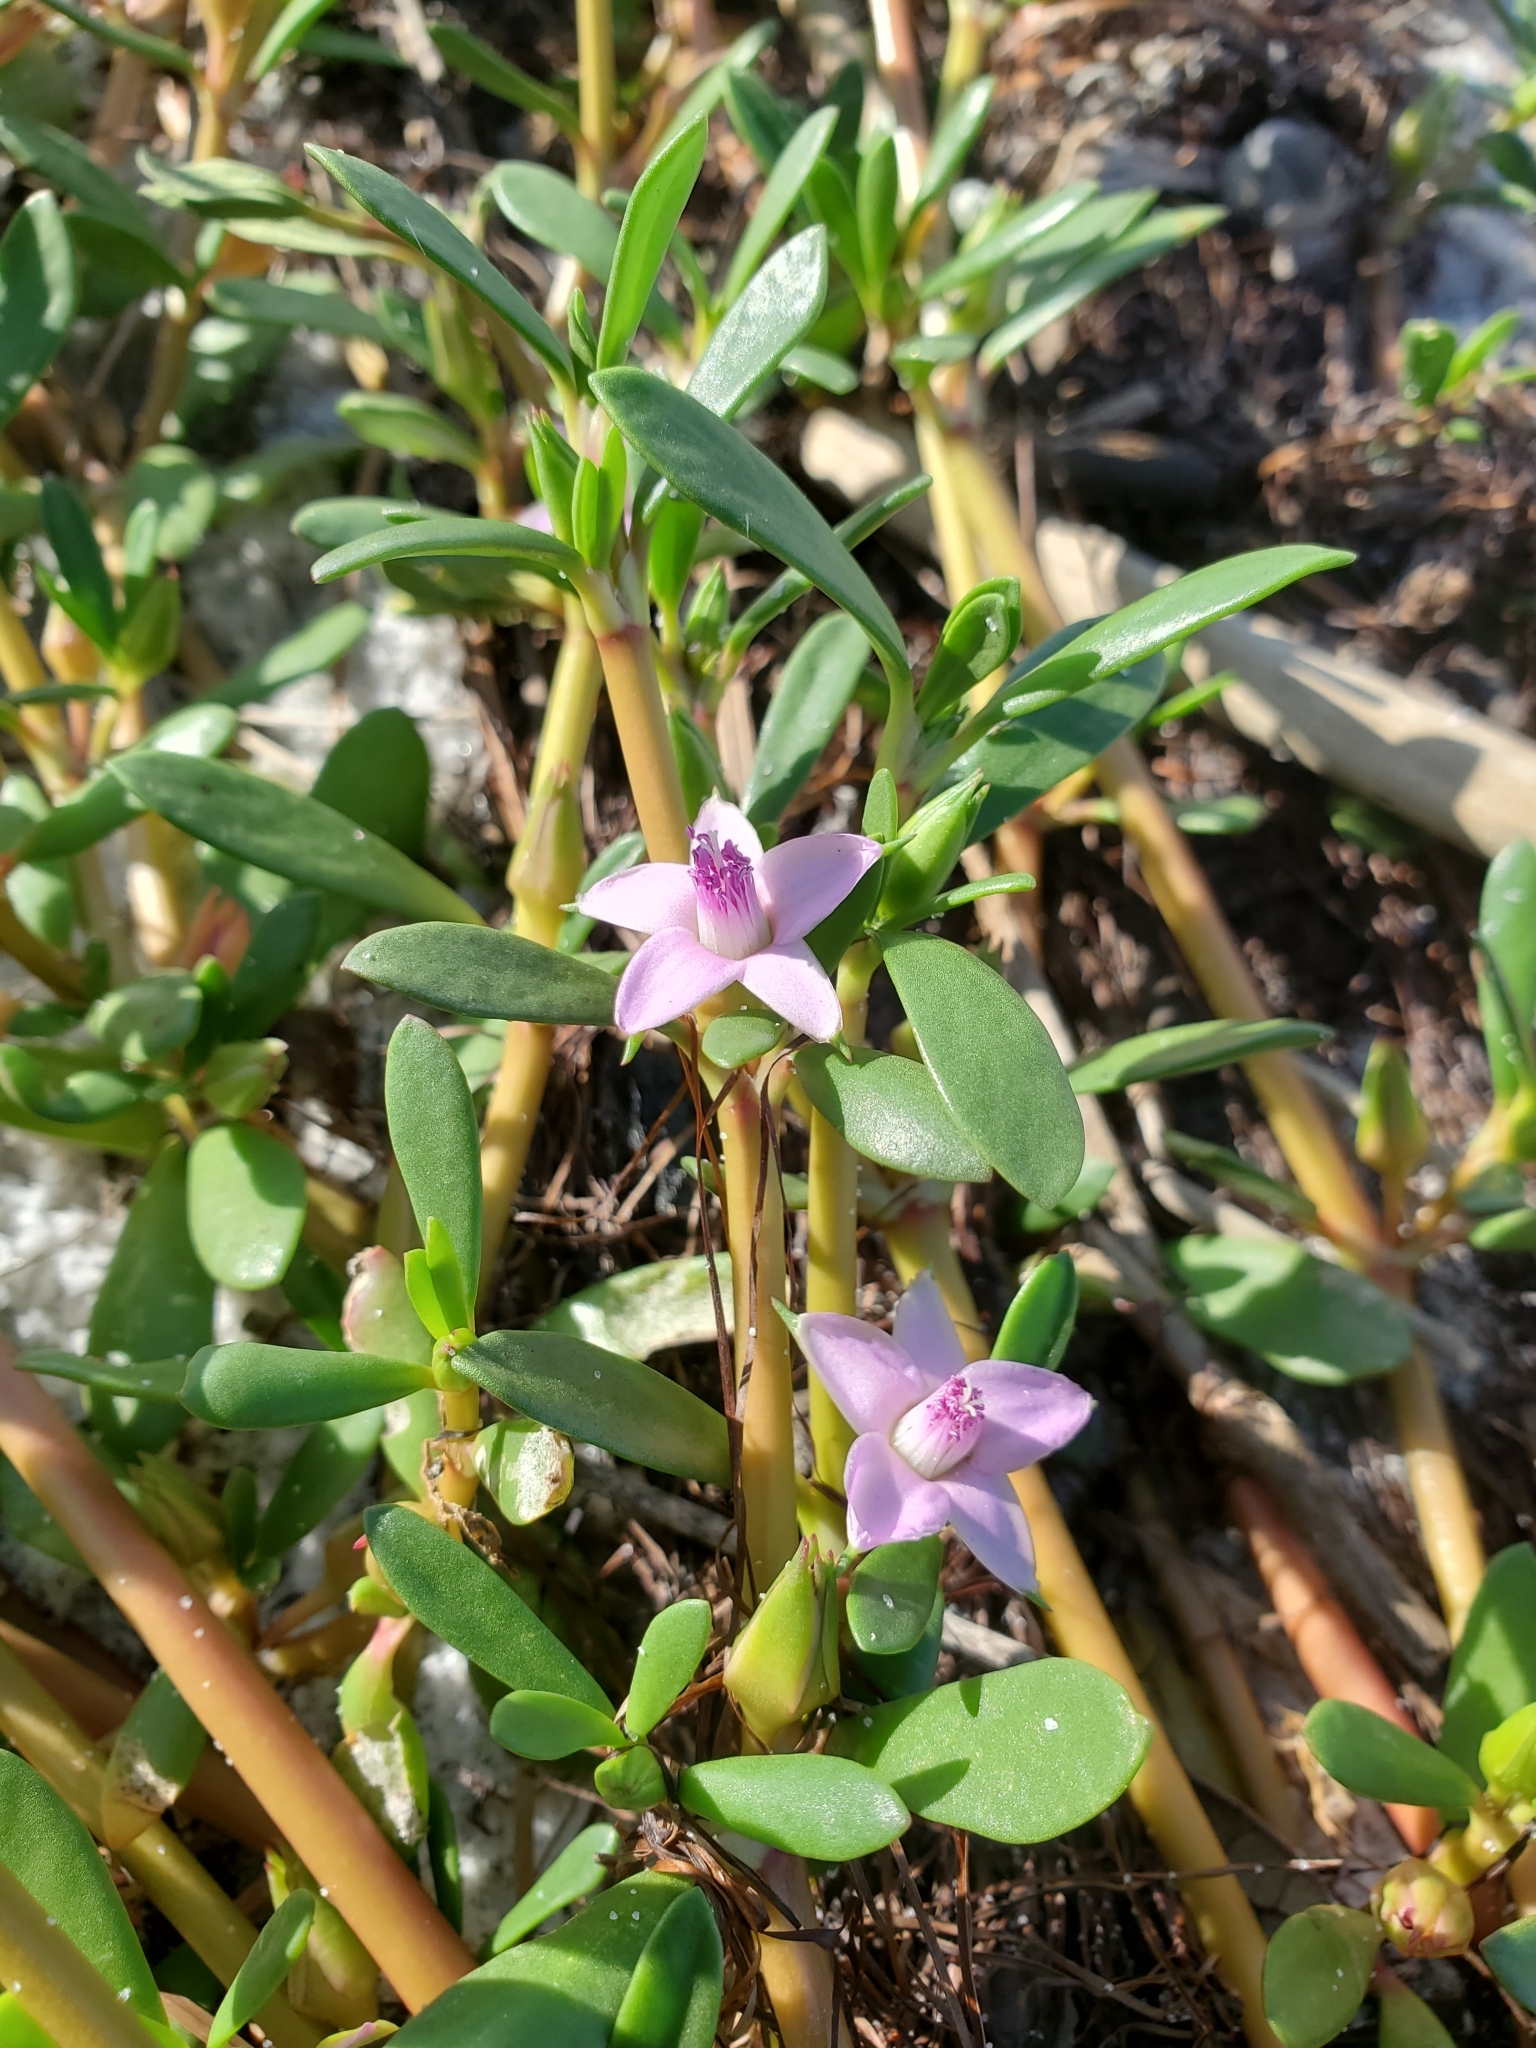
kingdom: Plantae
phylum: Tracheophyta
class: Magnoliopsida
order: Caryophyllales
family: Aizoaceae
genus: Sesuvium
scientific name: Sesuvium portulacastrum
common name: Sea-purslane
